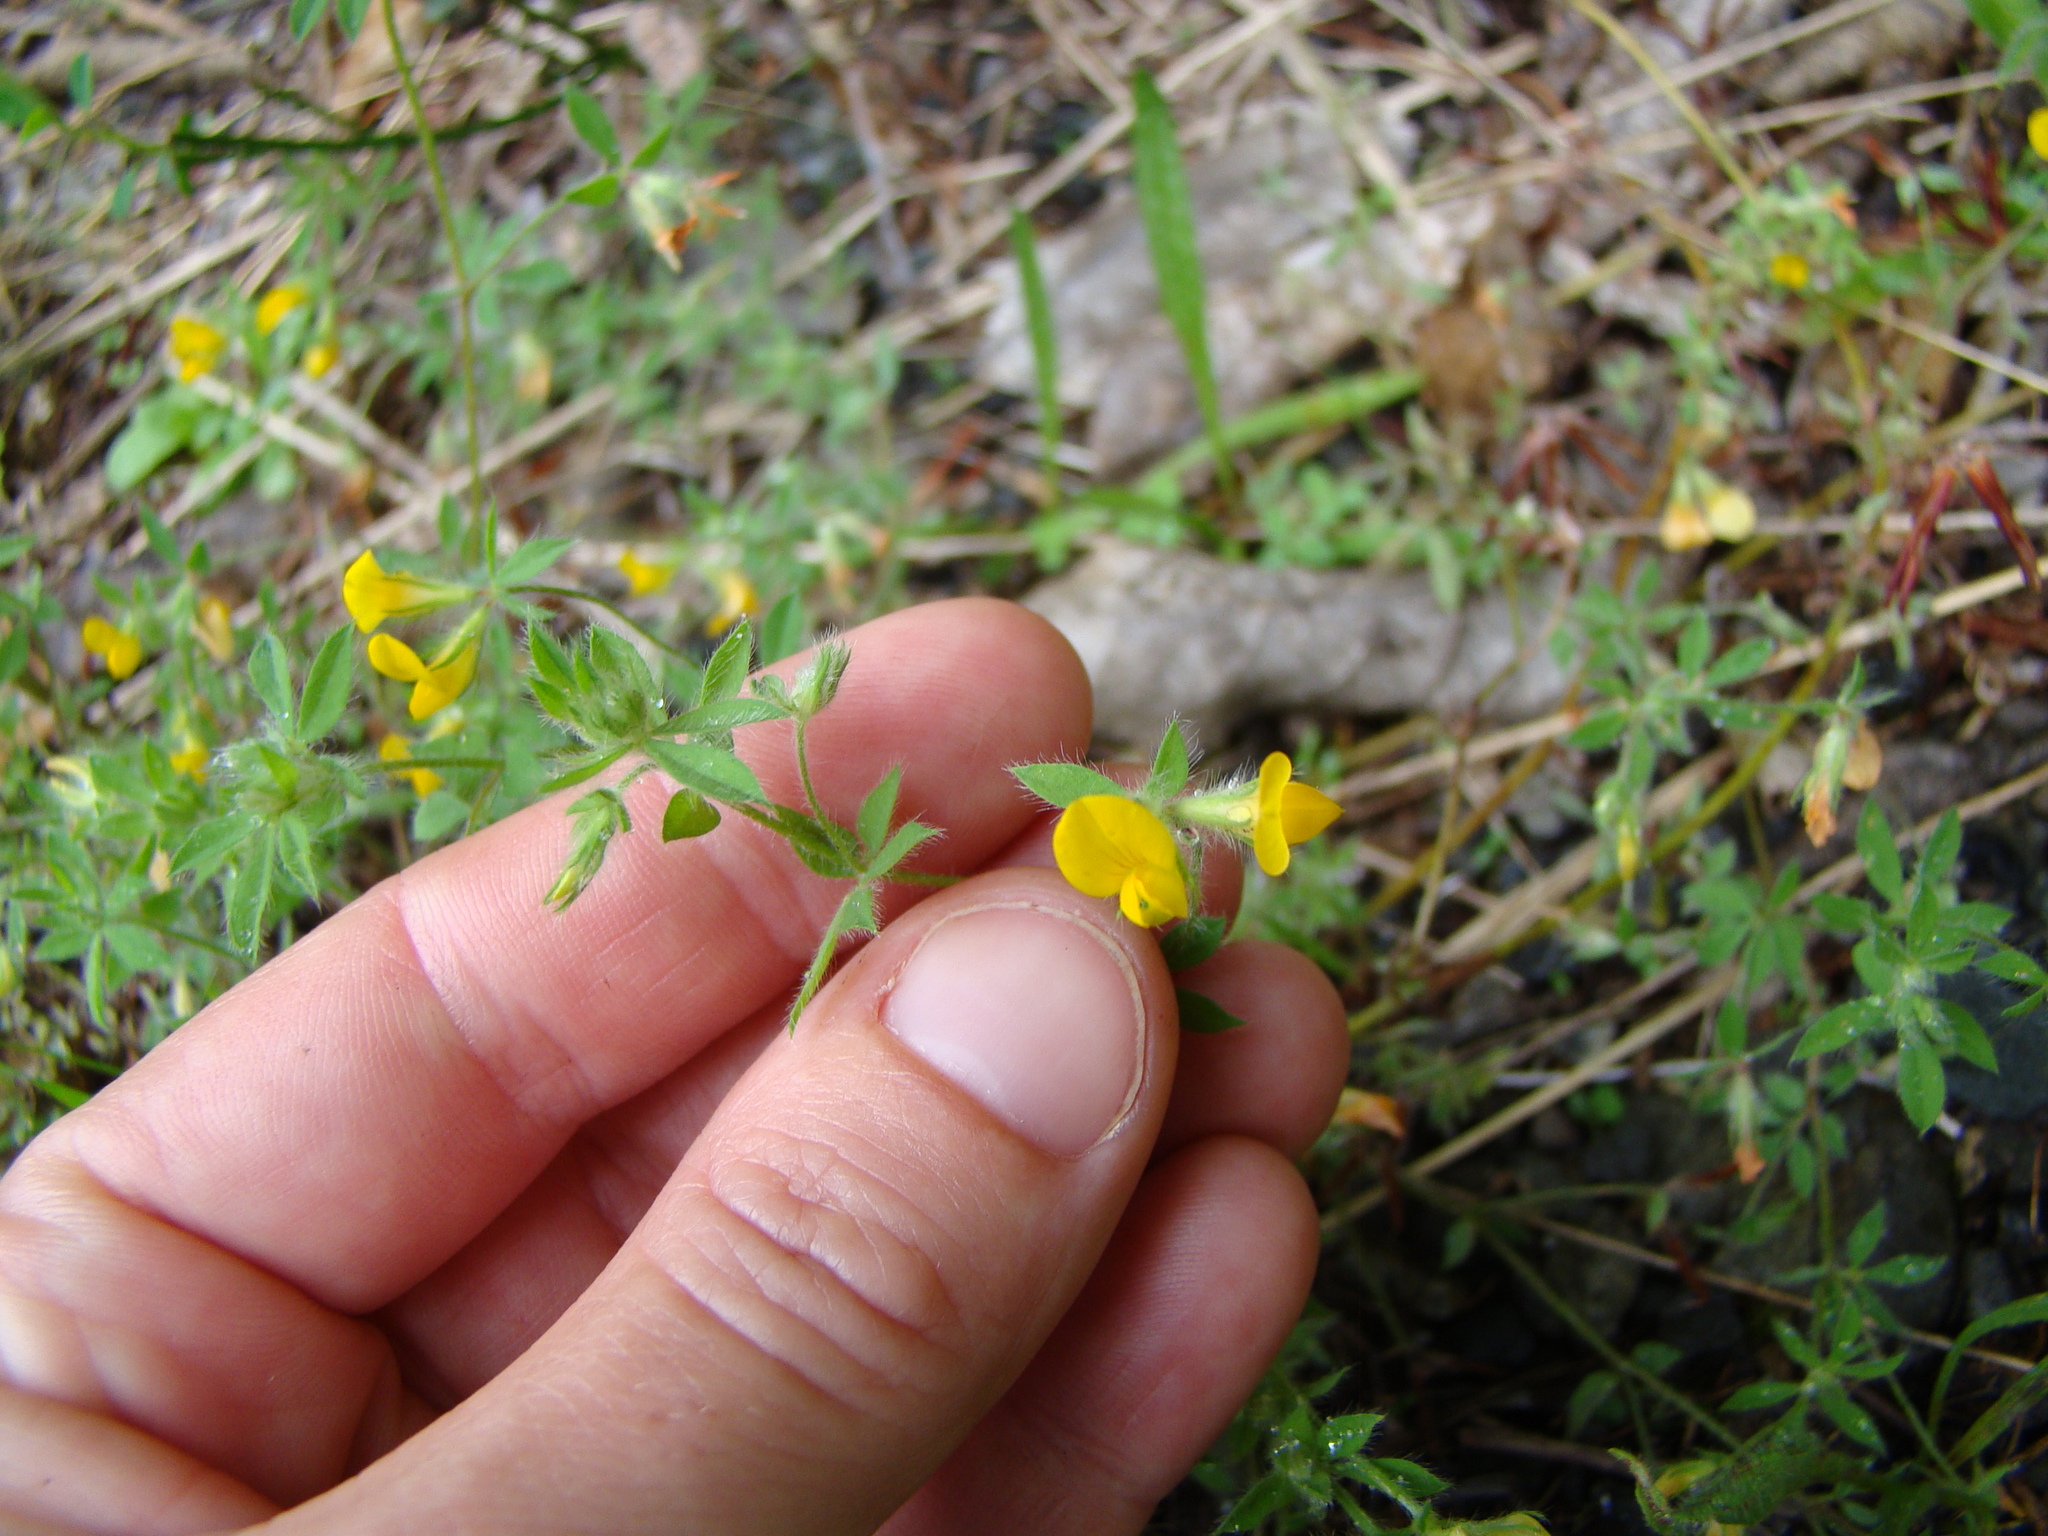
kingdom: Plantae
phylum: Tracheophyta
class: Magnoliopsida
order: Fabales
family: Fabaceae
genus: Lotus
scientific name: Lotus angustissimus
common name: Slender bird's-foot trefoil
